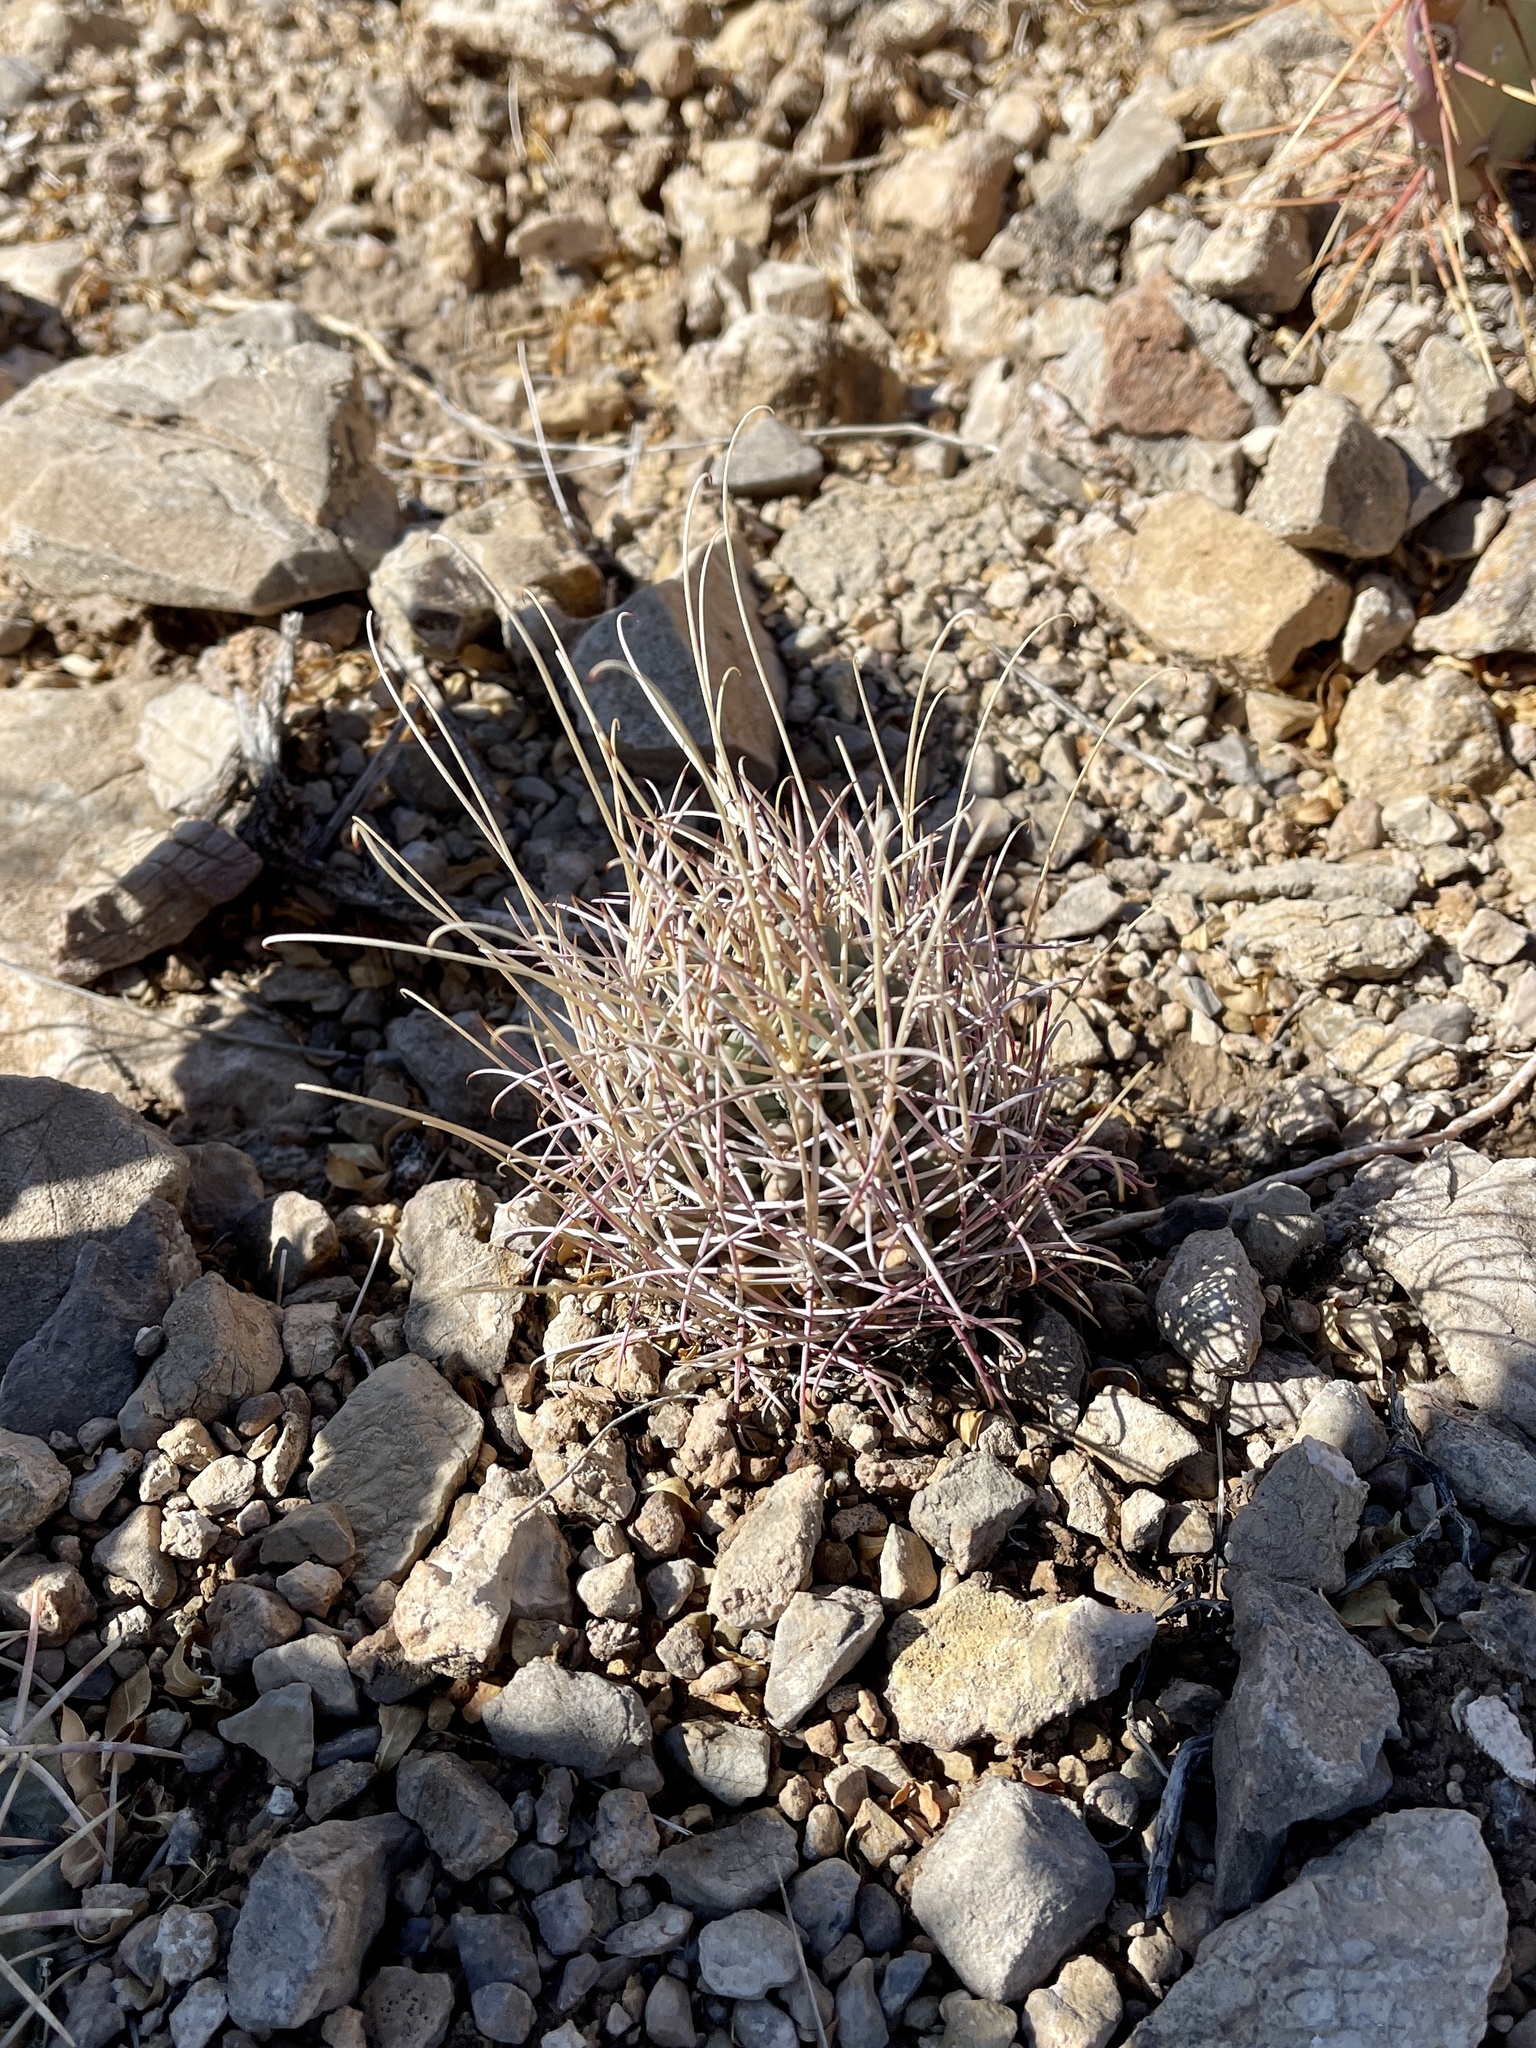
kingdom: Plantae
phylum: Tracheophyta
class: Magnoliopsida
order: Caryophyllales
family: Cactaceae
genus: Ferocactus
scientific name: Ferocactus uncinatus
